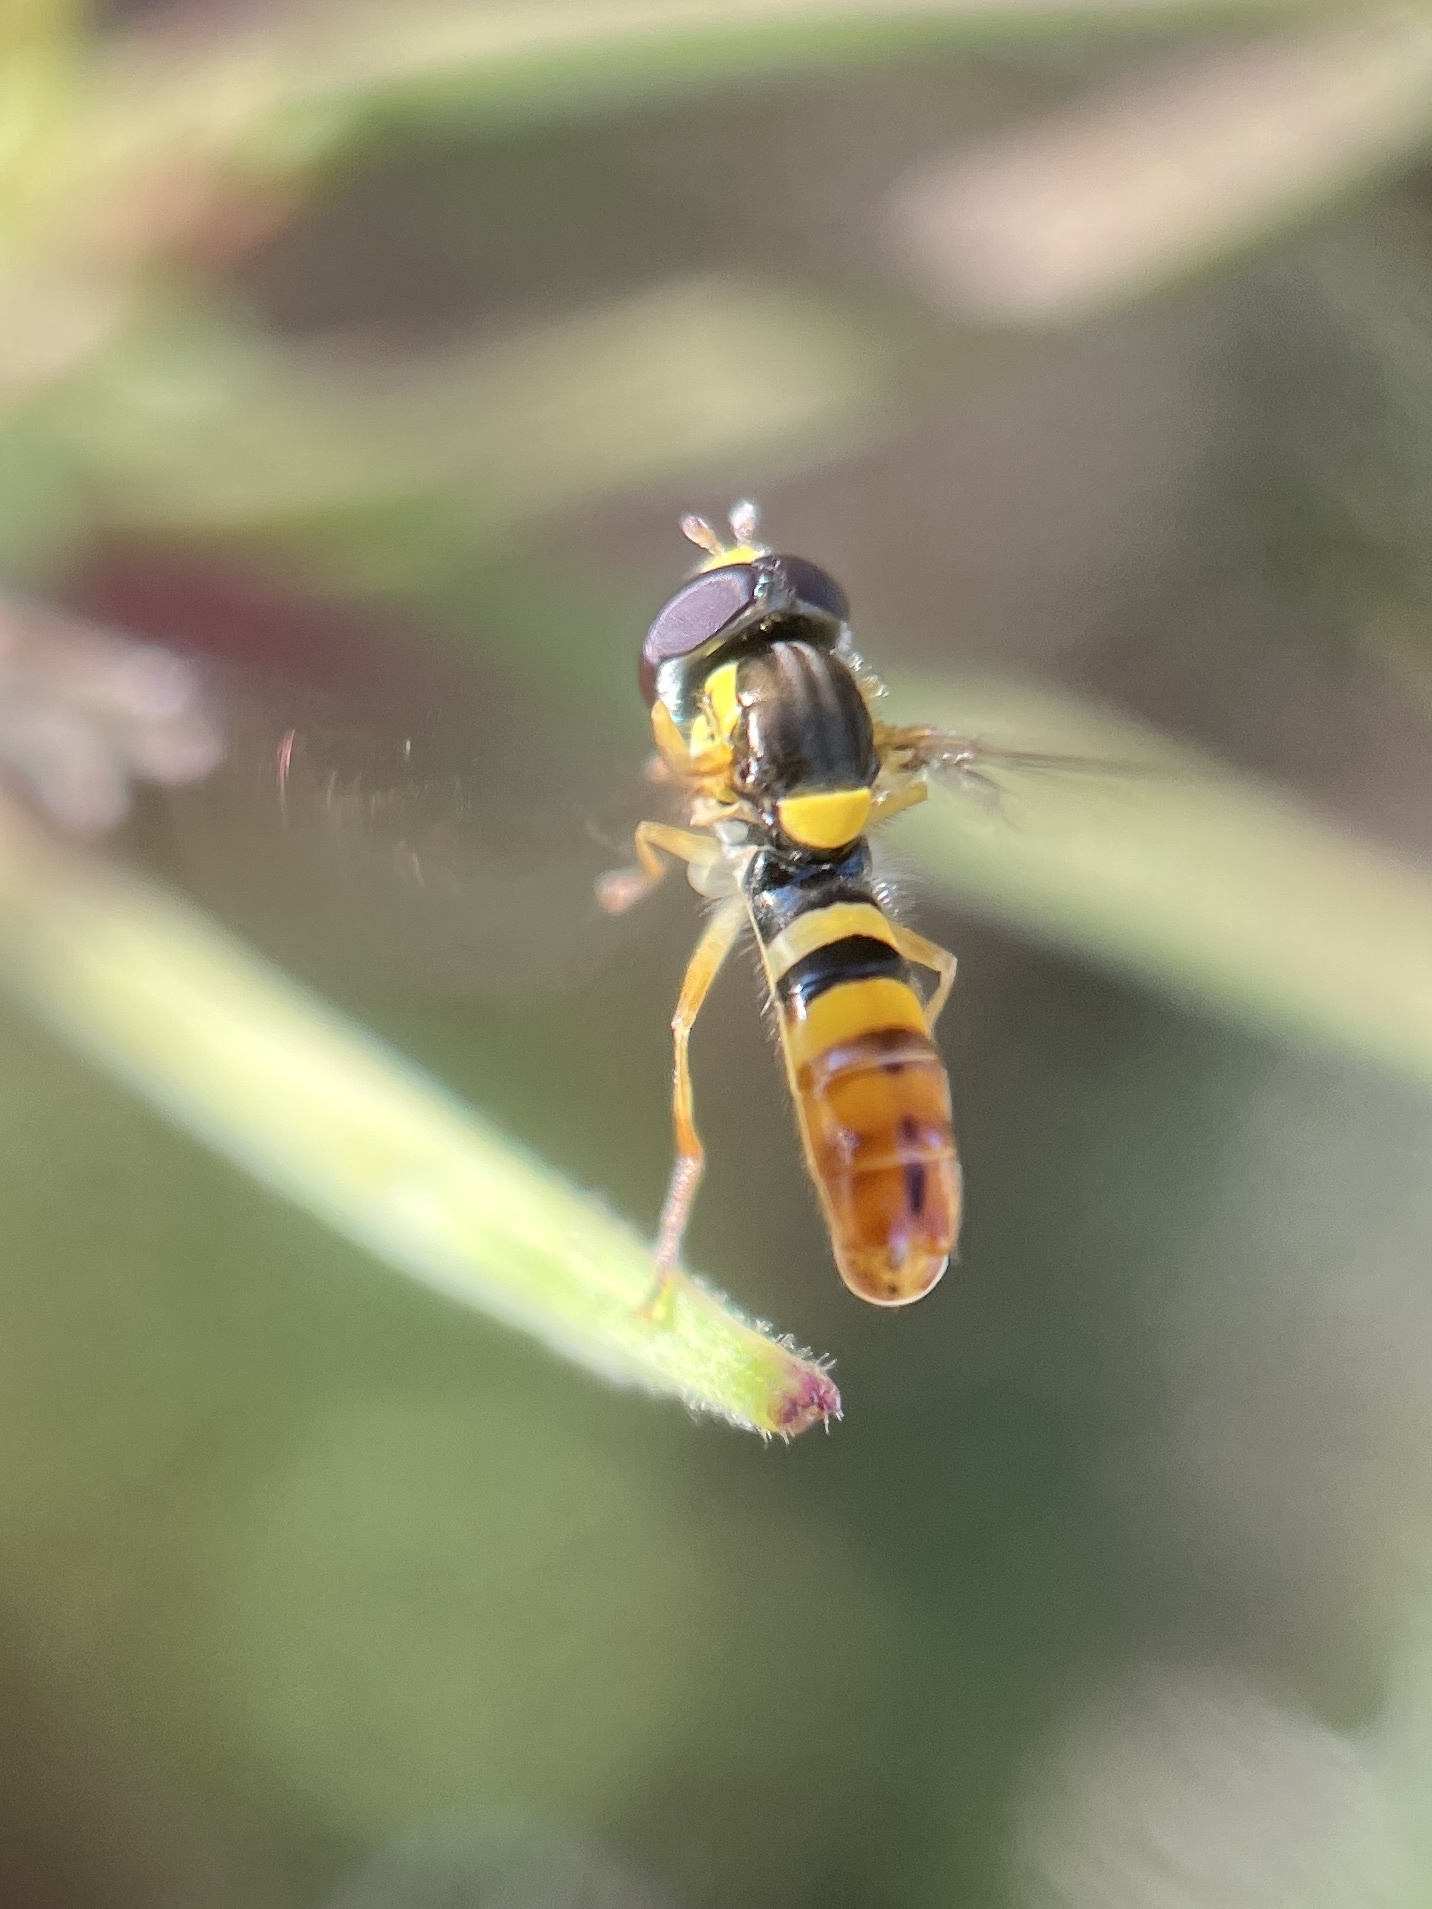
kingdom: Animalia
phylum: Arthropoda
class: Insecta
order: Diptera
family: Syrphidae
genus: Sphaerophoria
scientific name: Sphaerophoria sulphuripes
